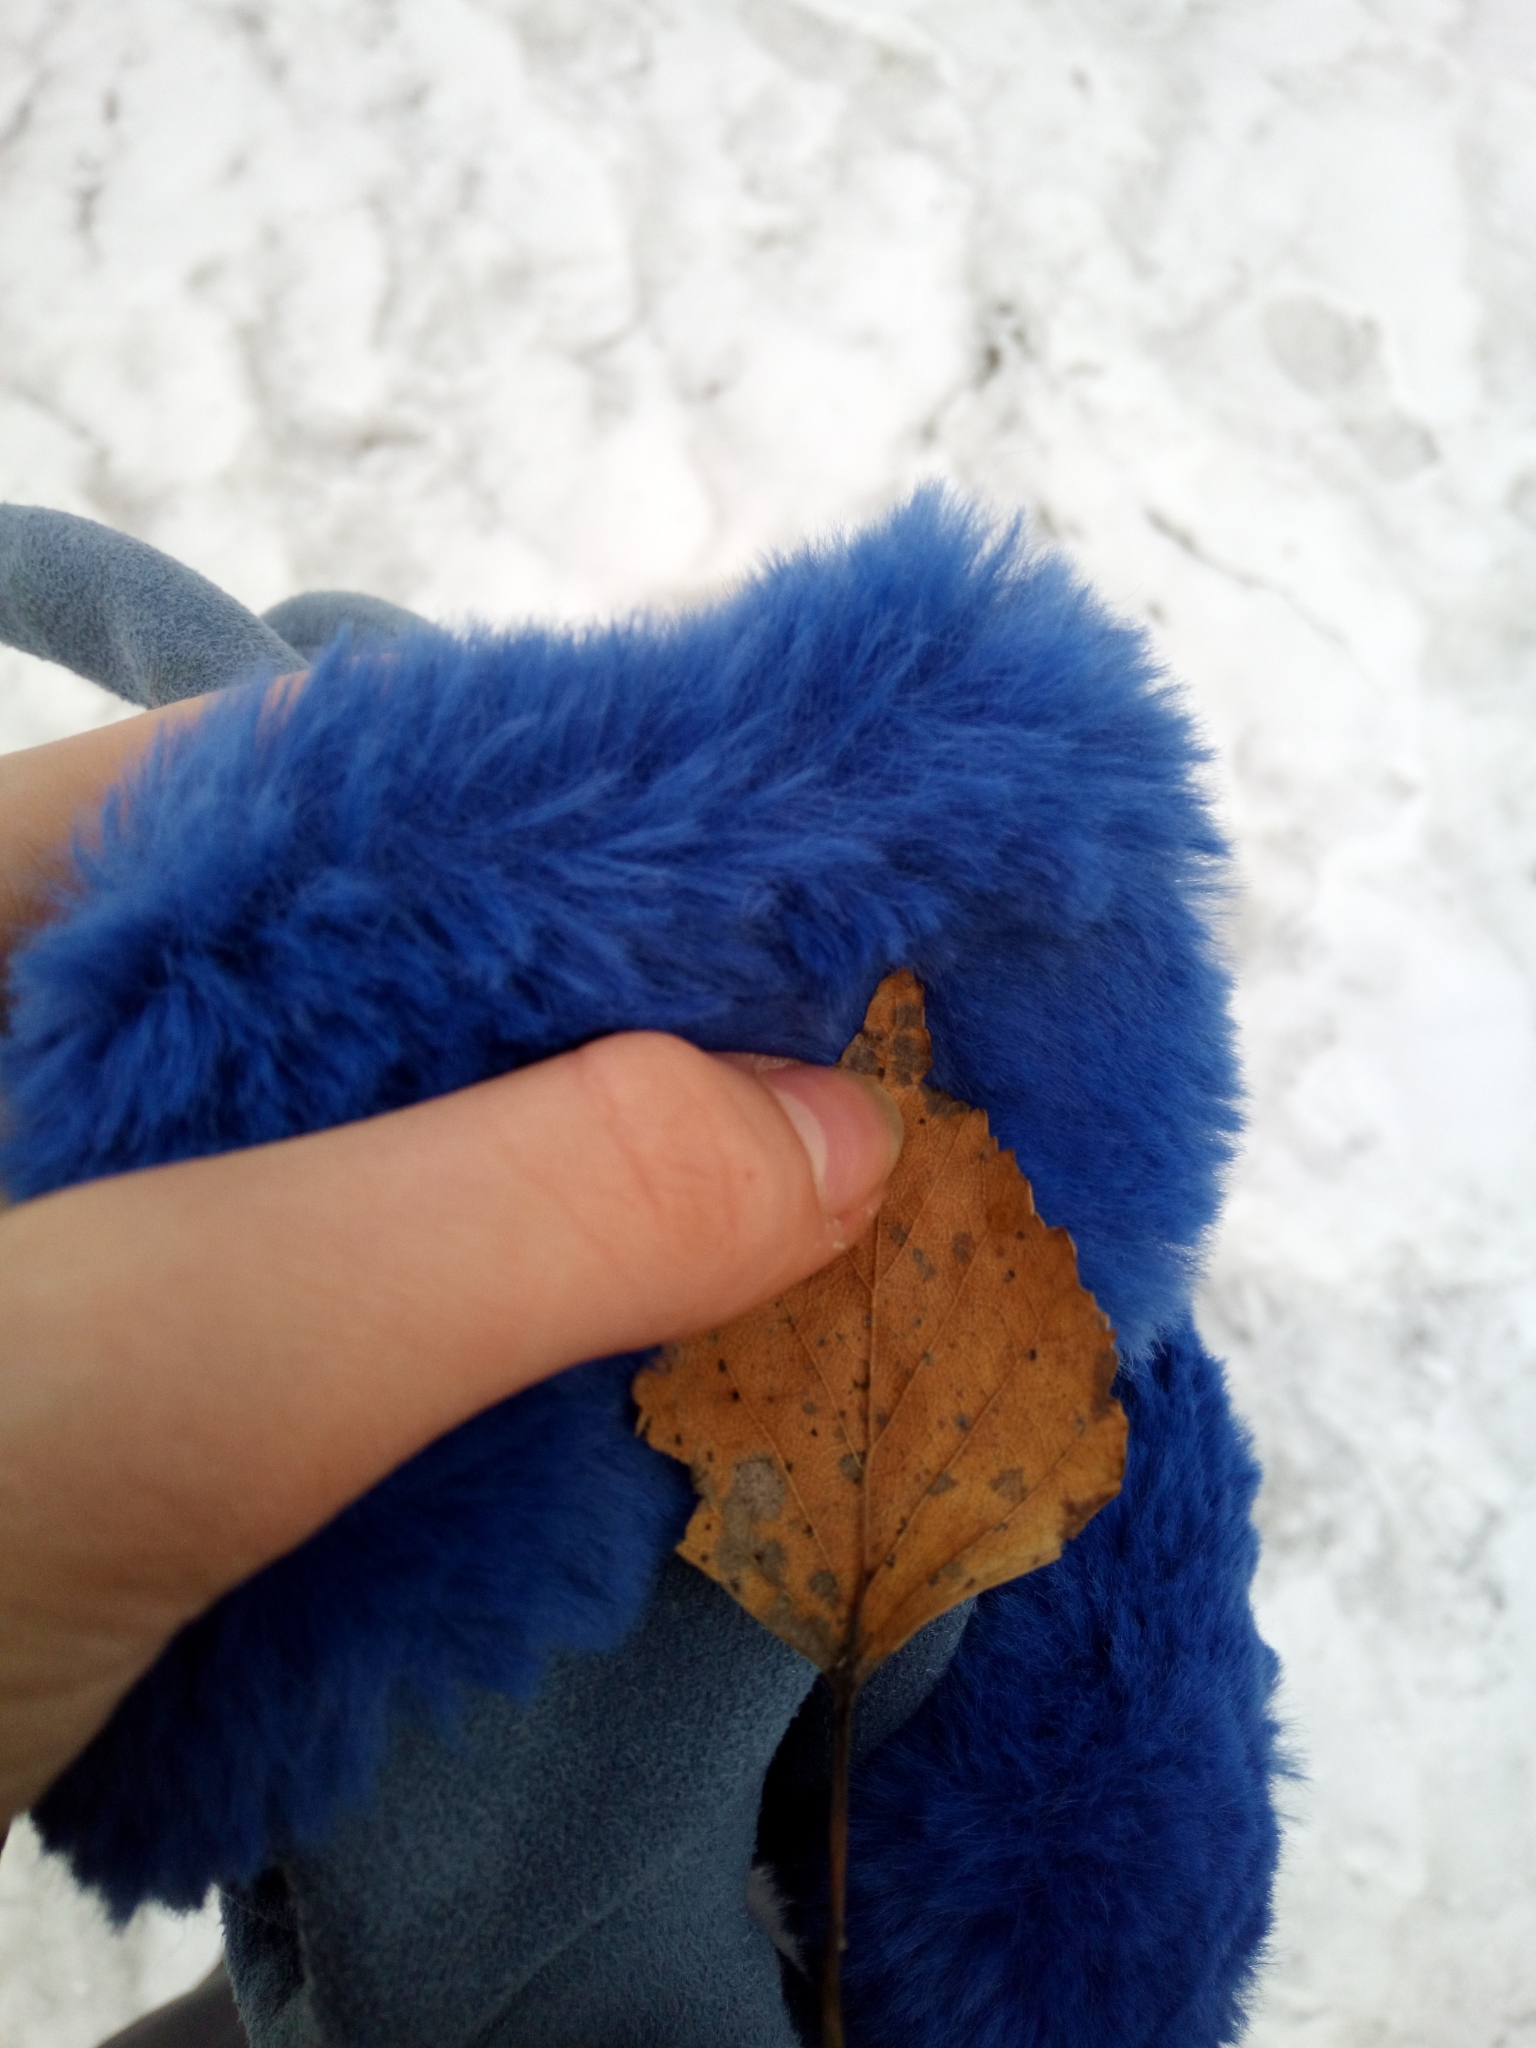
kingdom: Plantae
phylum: Tracheophyta
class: Magnoliopsida
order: Fagales
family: Betulaceae
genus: Betula
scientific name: Betula pendula
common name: Silver birch
